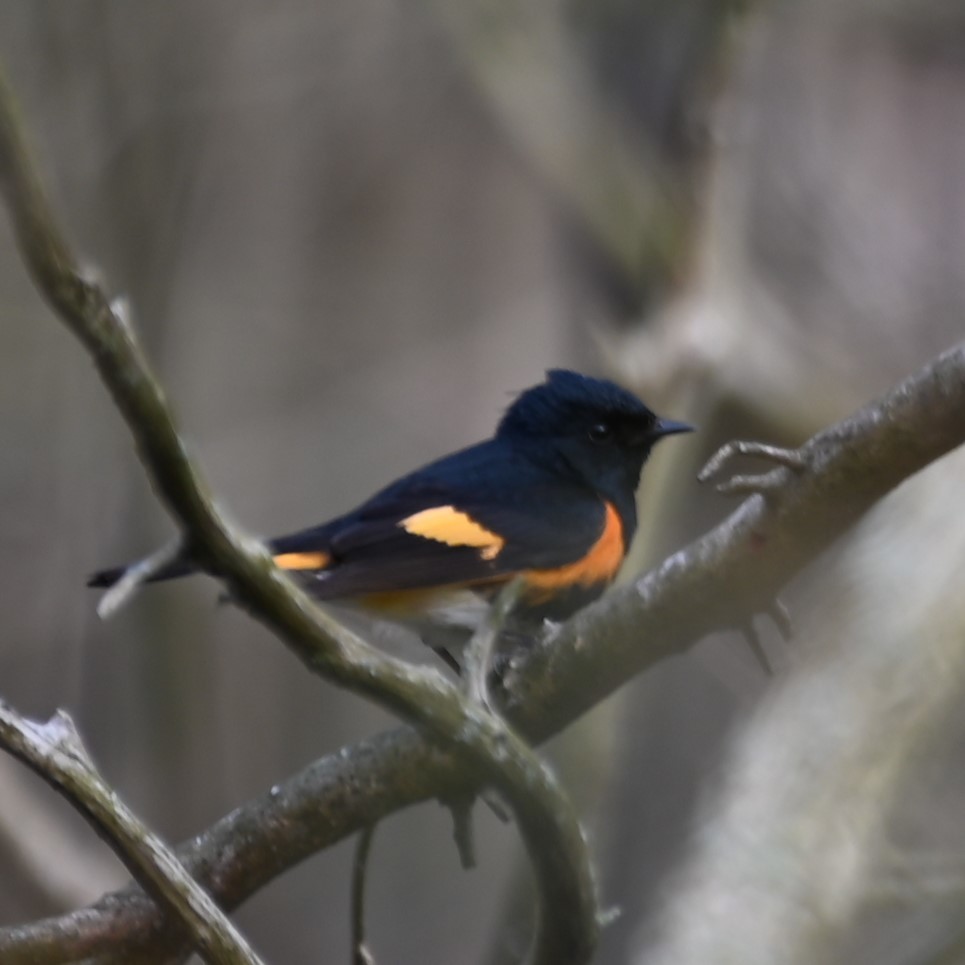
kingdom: Animalia
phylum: Chordata
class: Aves
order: Passeriformes
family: Parulidae
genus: Setophaga
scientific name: Setophaga ruticilla
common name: American redstart
